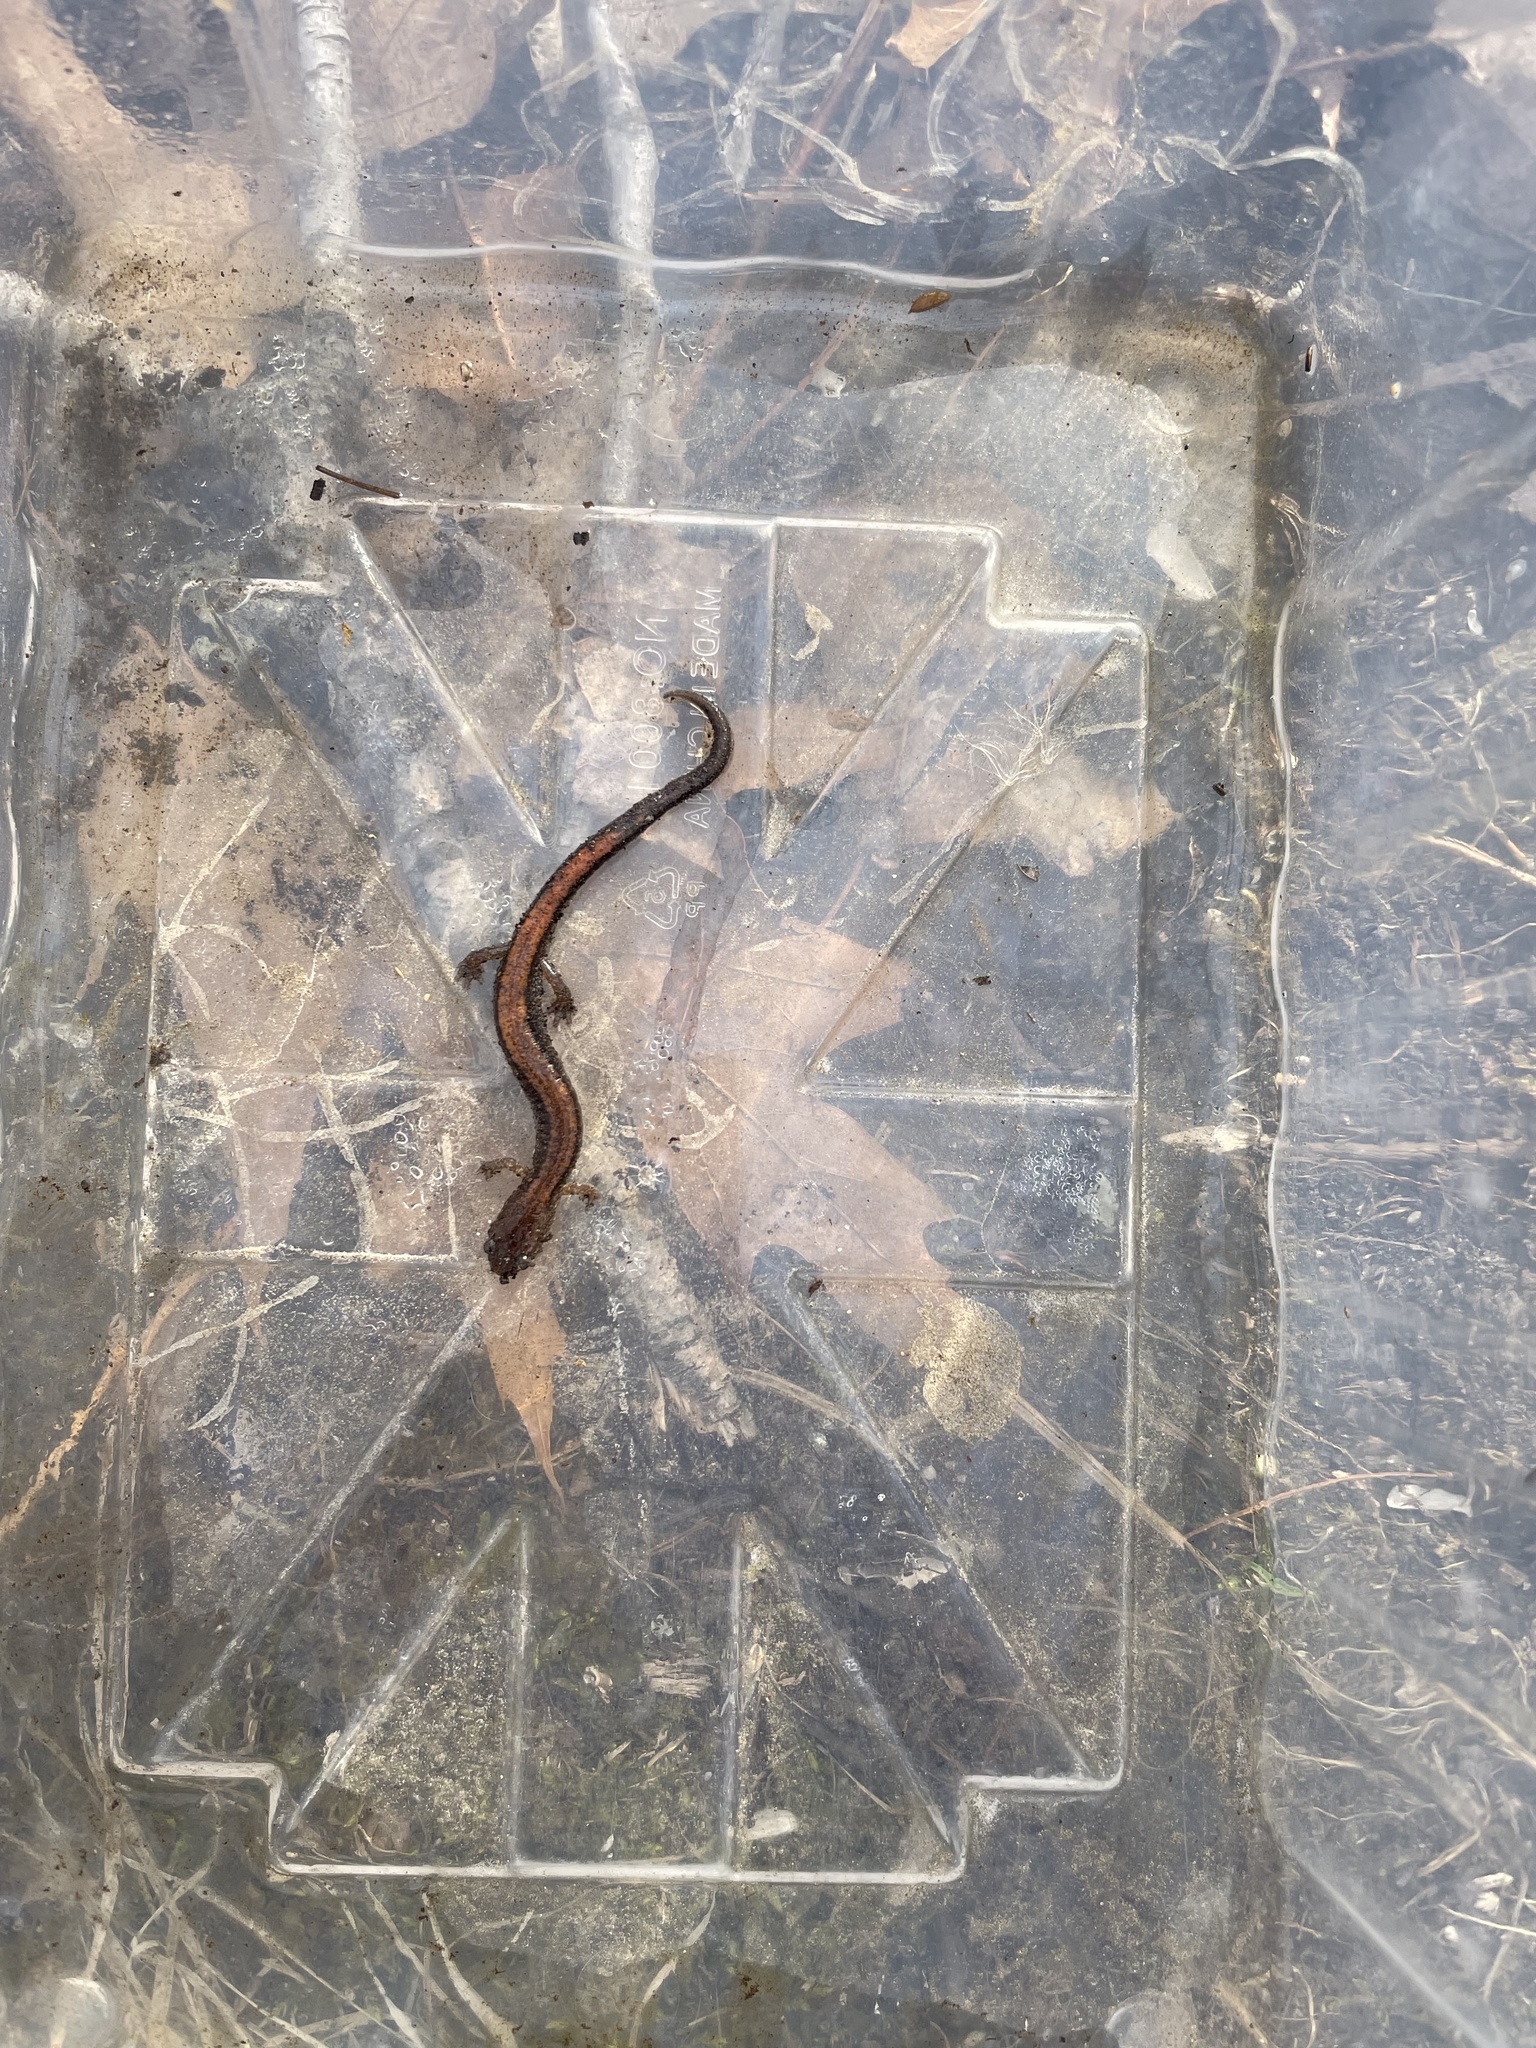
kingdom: Animalia
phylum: Chordata
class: Amphibia
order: Caudata
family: Plethodontidae
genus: Plethodon
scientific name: Plethodon cinereus
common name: Redback salamander
